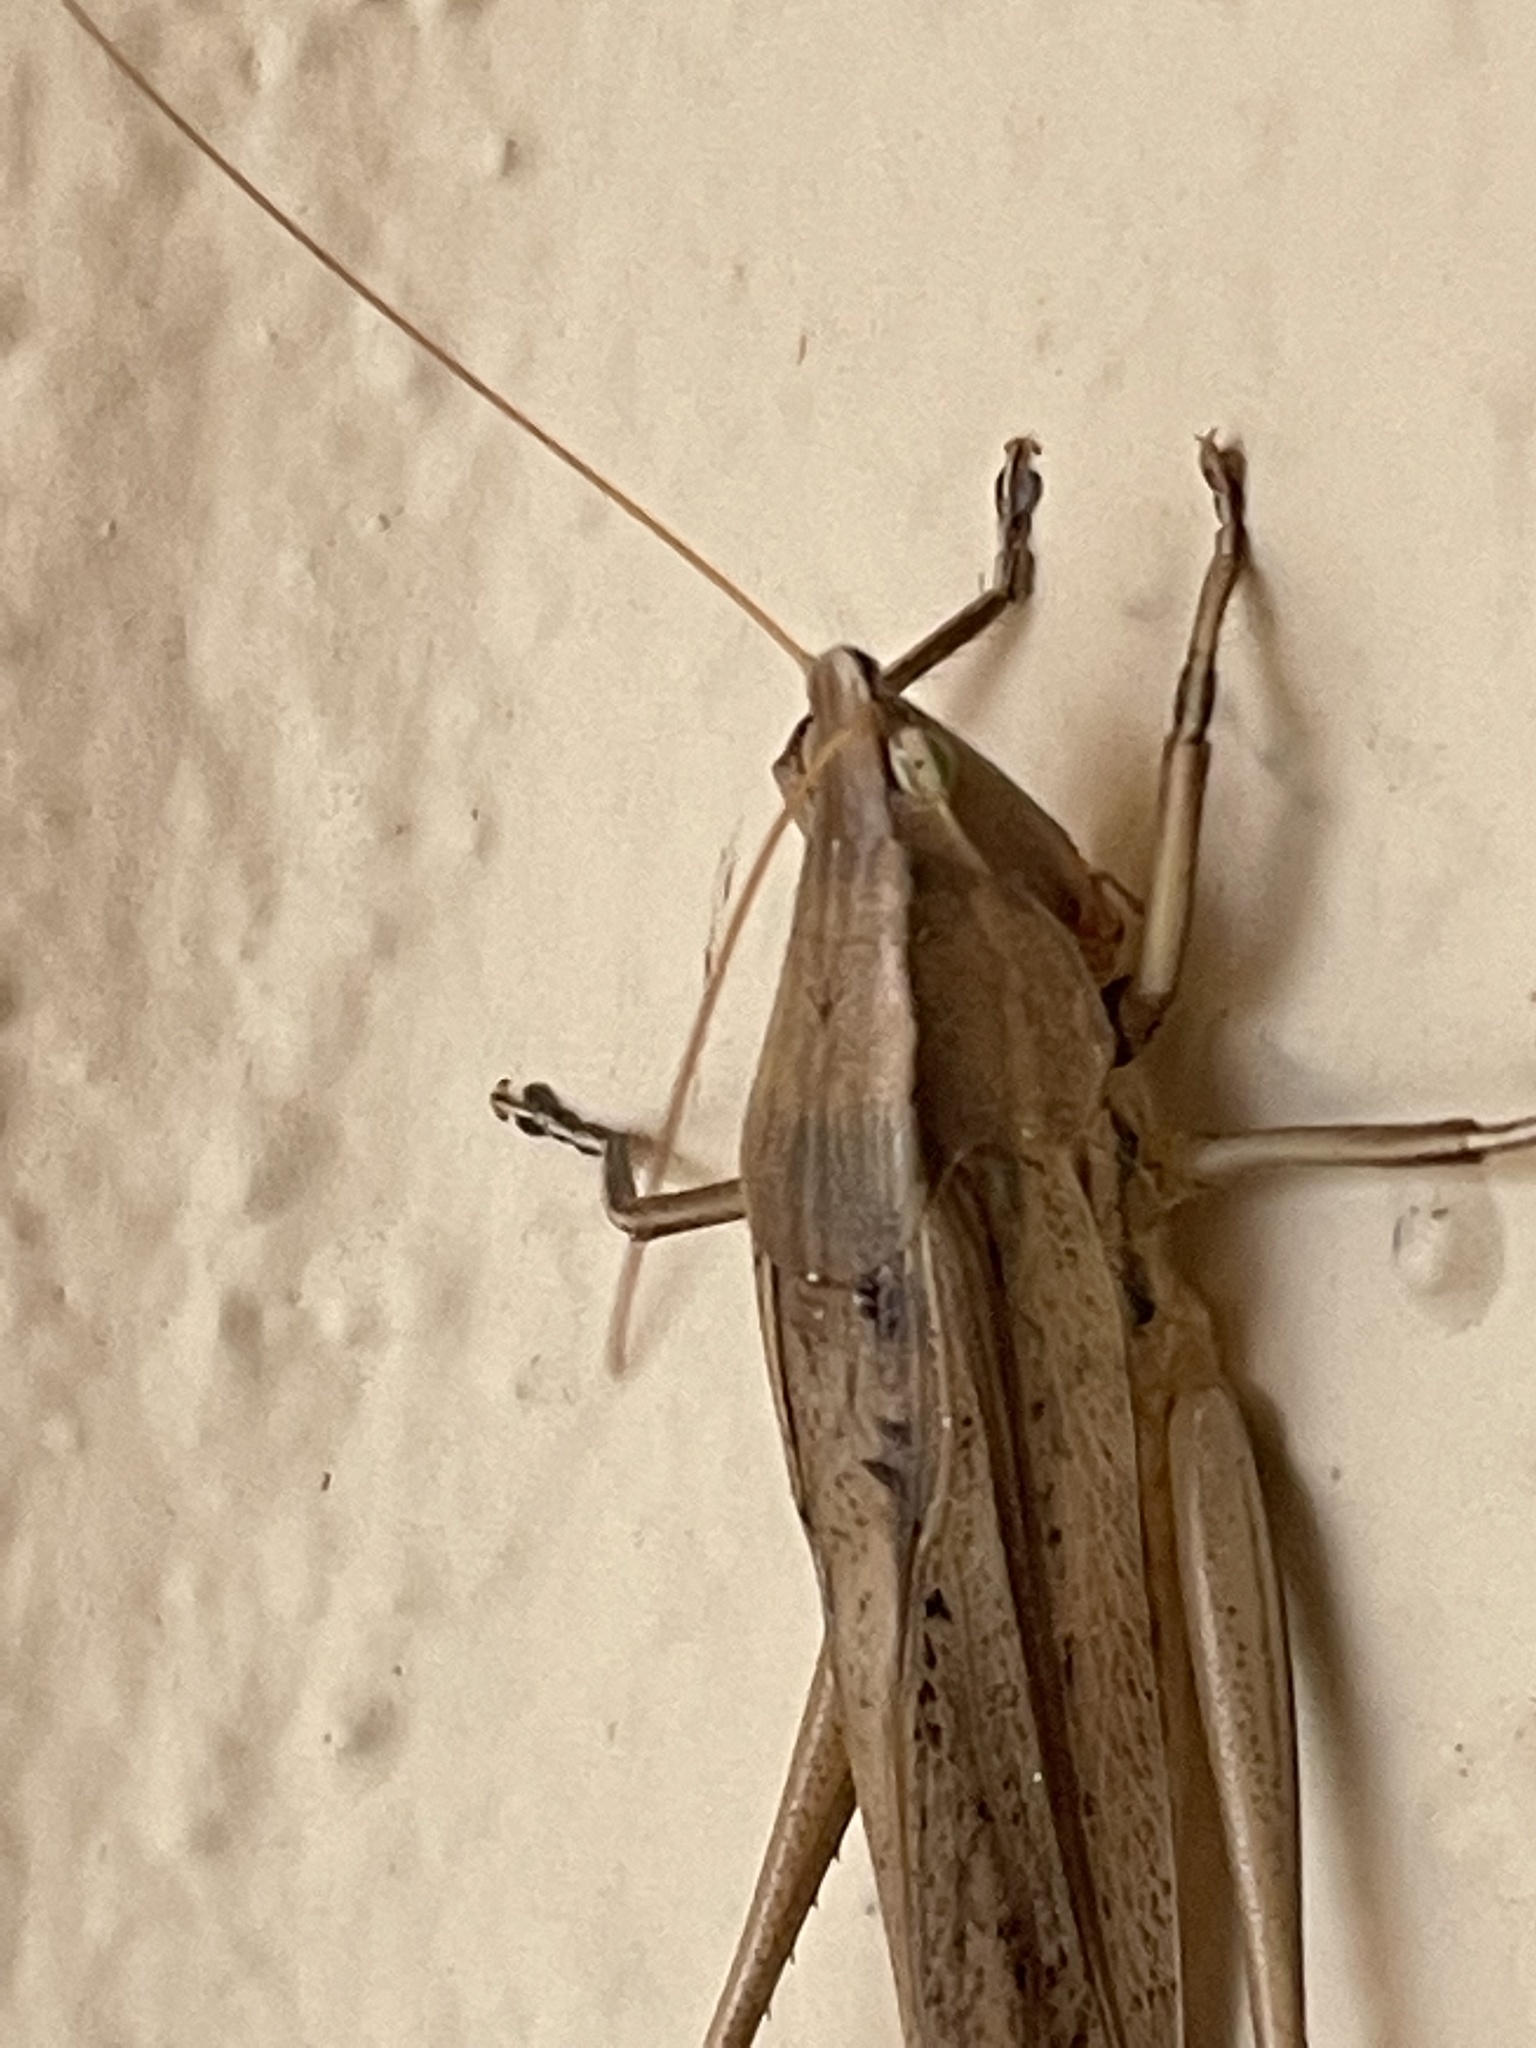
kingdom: Animalia
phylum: Arthropoda
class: Insecta
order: Orthoptera
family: Tettigoniidae
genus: Neoconocephalus
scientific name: Neoconocephalus triops
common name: Broad-tipped conehead
